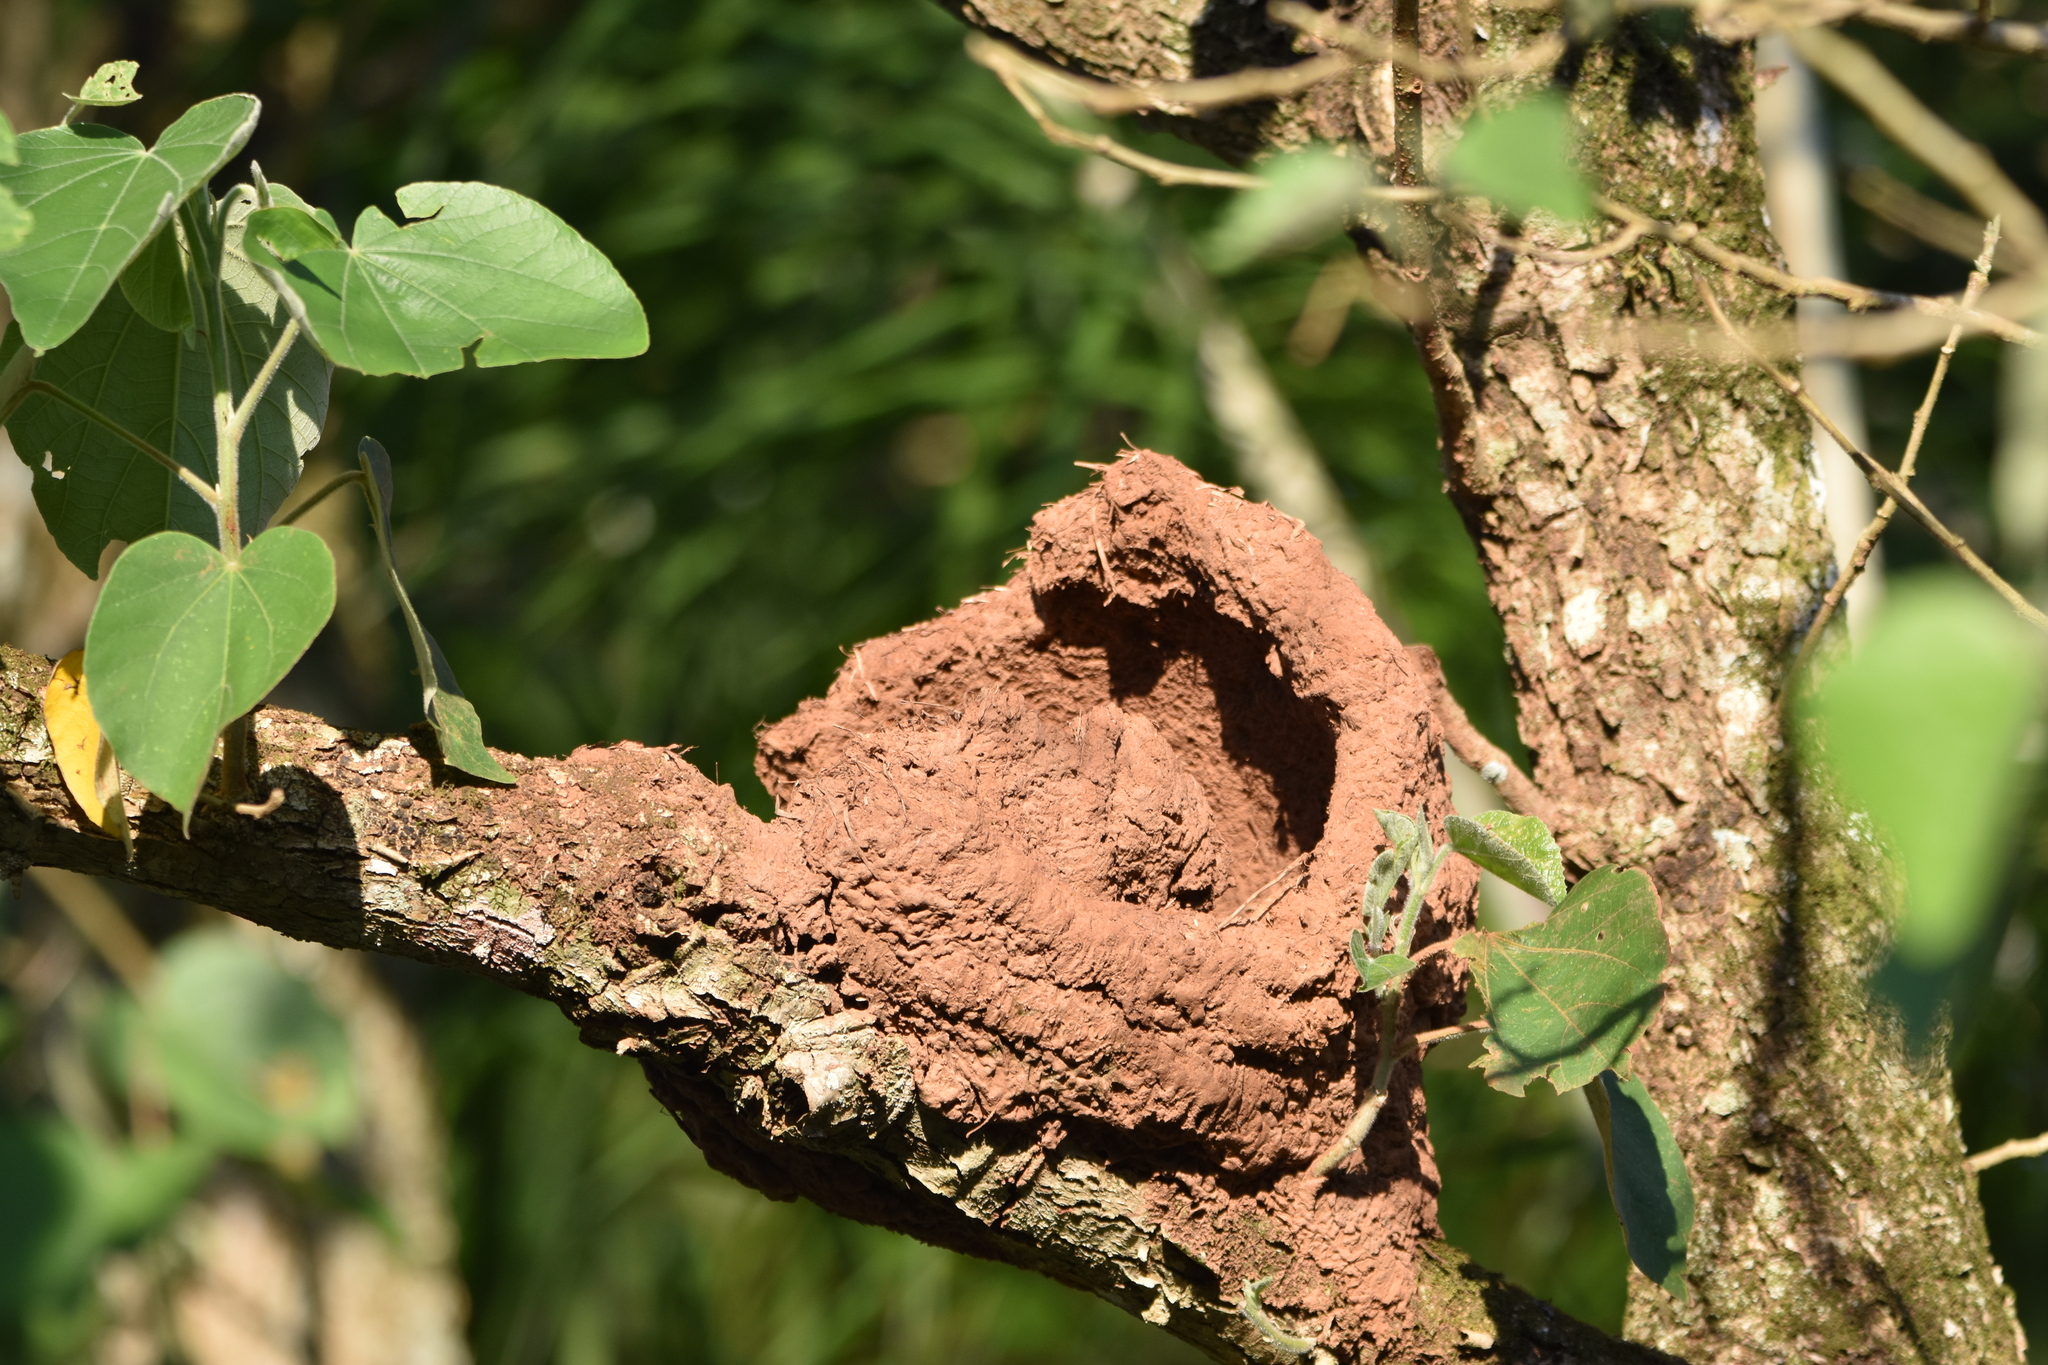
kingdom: Animalia
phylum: Chordata
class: Aves
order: Passeriformes
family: Furnariidae
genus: Furnarius
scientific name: Furnarius rufus
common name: Rufous hornero
